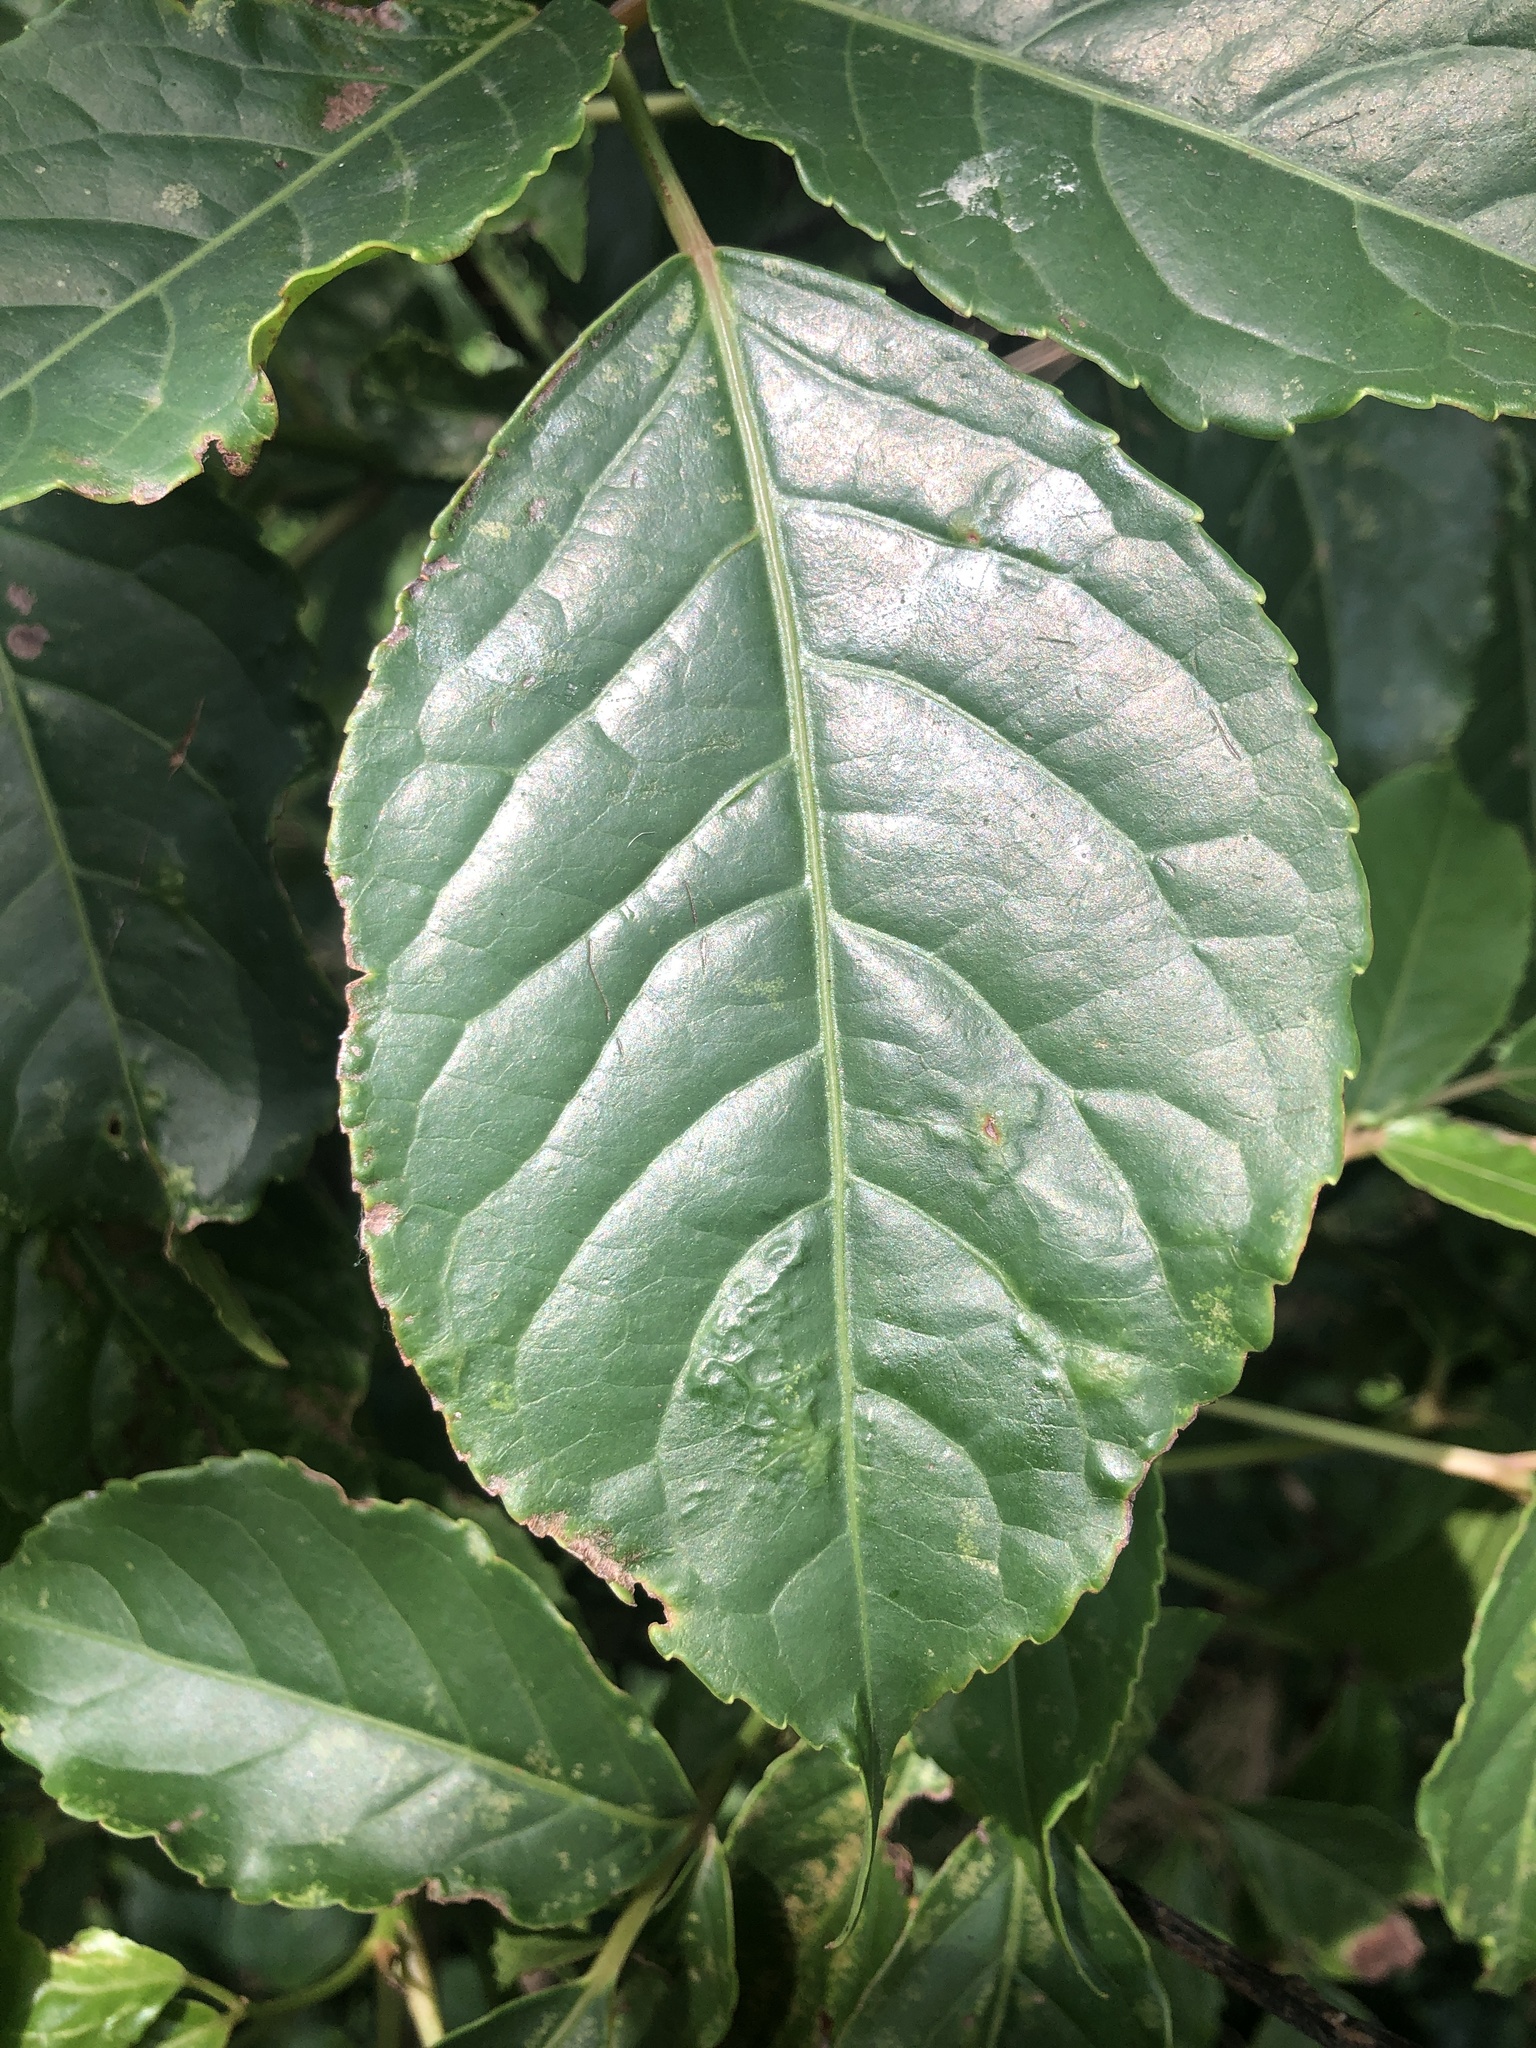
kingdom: Plantae
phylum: Tracheophyta
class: Magnoliopsida
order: Malpighiales
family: Phyllanthaceae
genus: Bischofia
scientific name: Bischofia javanica
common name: Javanese bishopwood
